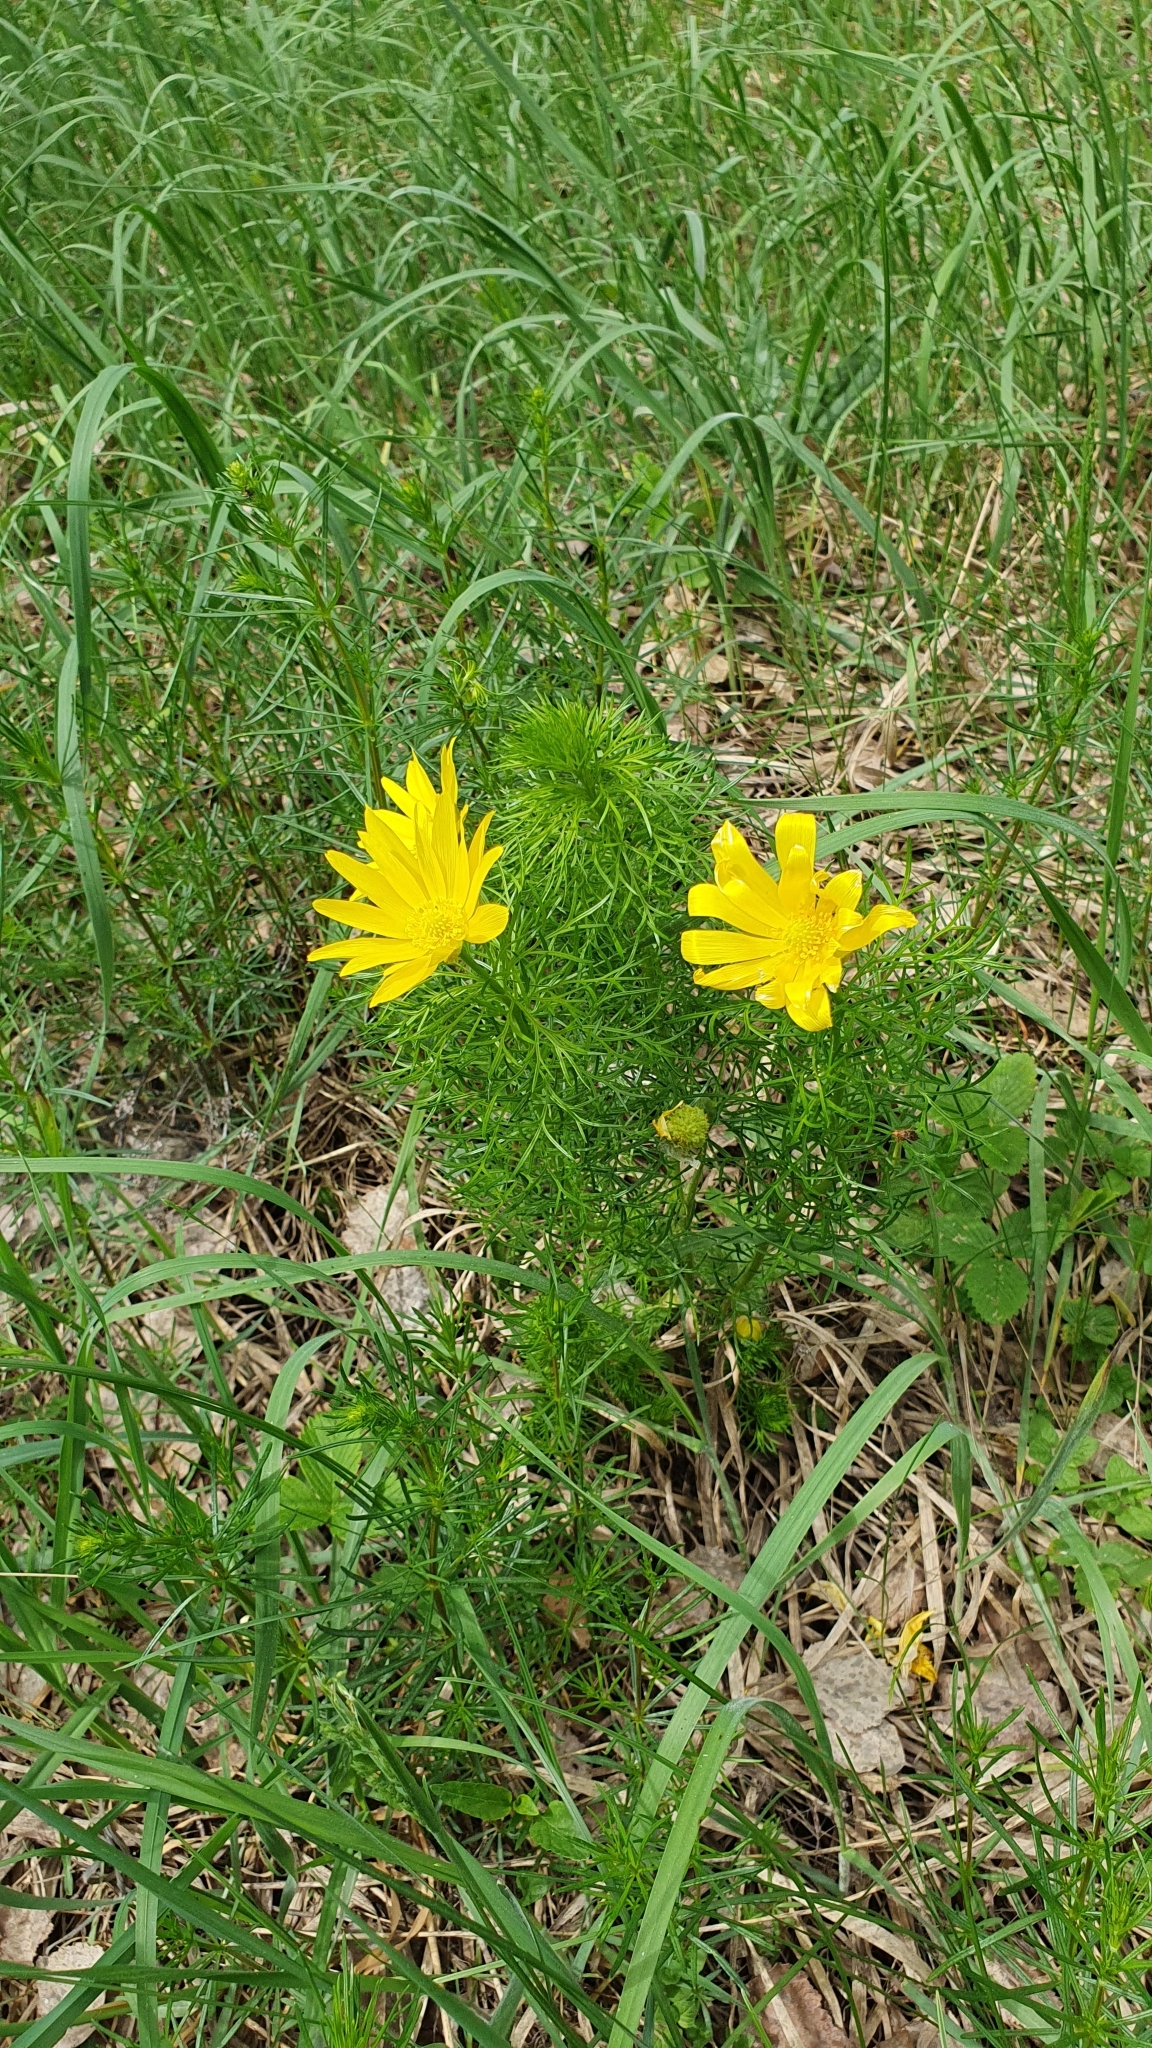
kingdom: Plantae
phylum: Tracheophyta
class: Magnoliopsida
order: Ranunculales
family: Ranunculaceae
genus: Adonis
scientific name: Adonis vernalis
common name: Yellow pheasants-eye
